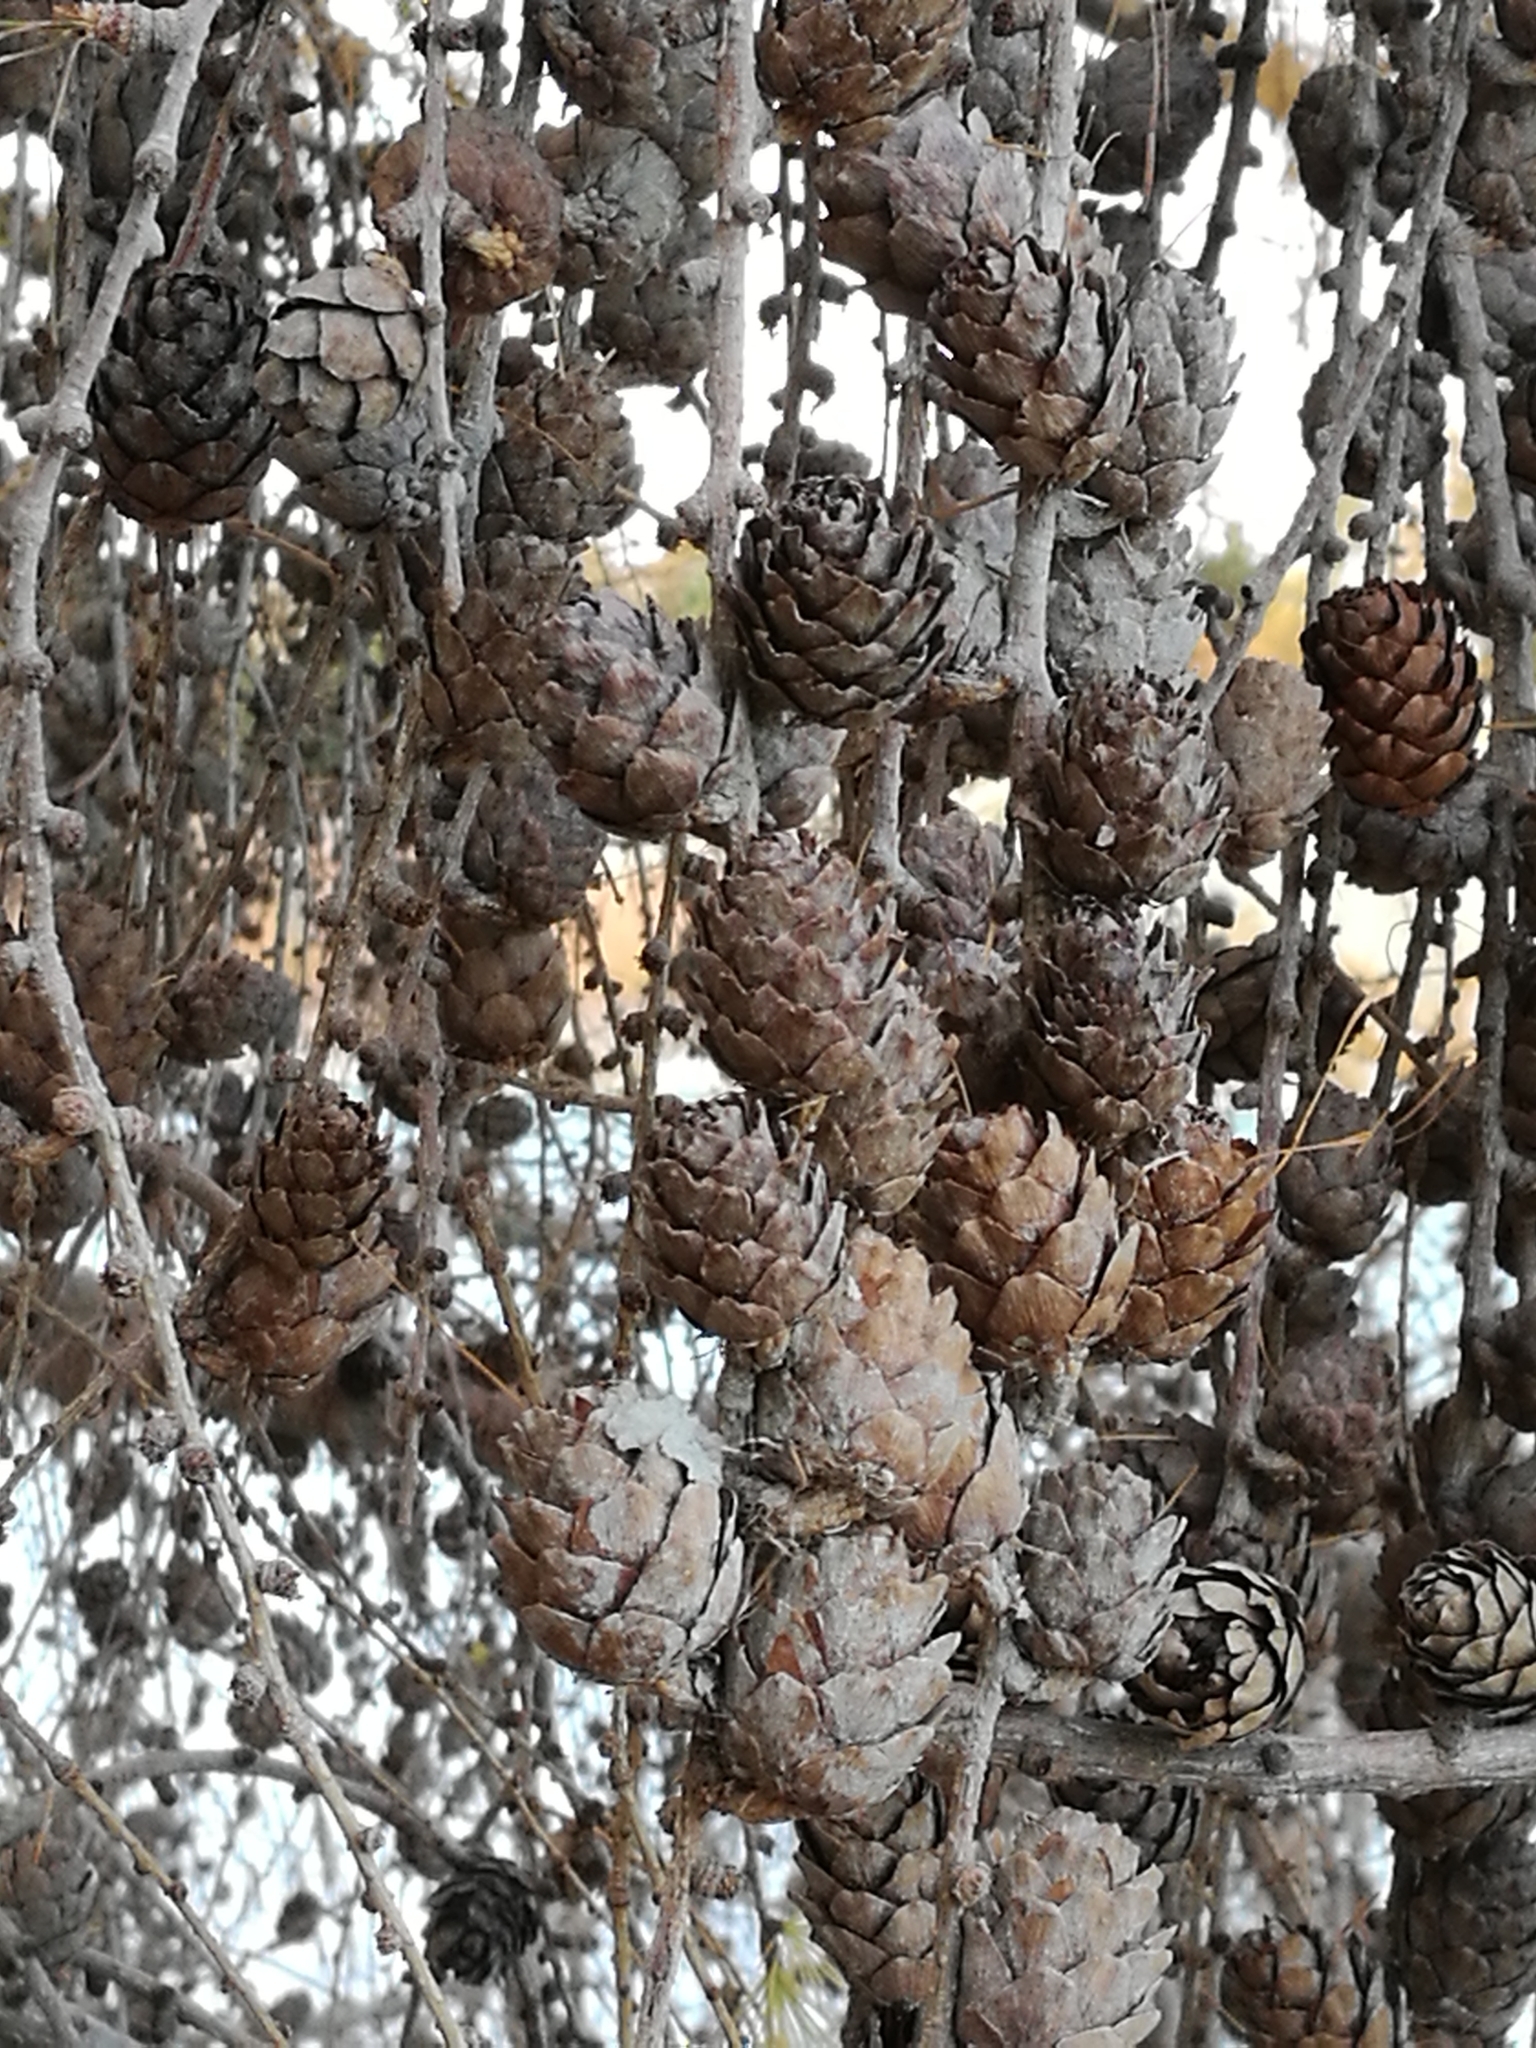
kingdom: Plantae
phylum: Tracheophyta
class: Pinopsida
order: Pinales
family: Pinaceae
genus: Larix
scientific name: Larix decidua
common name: European larch
